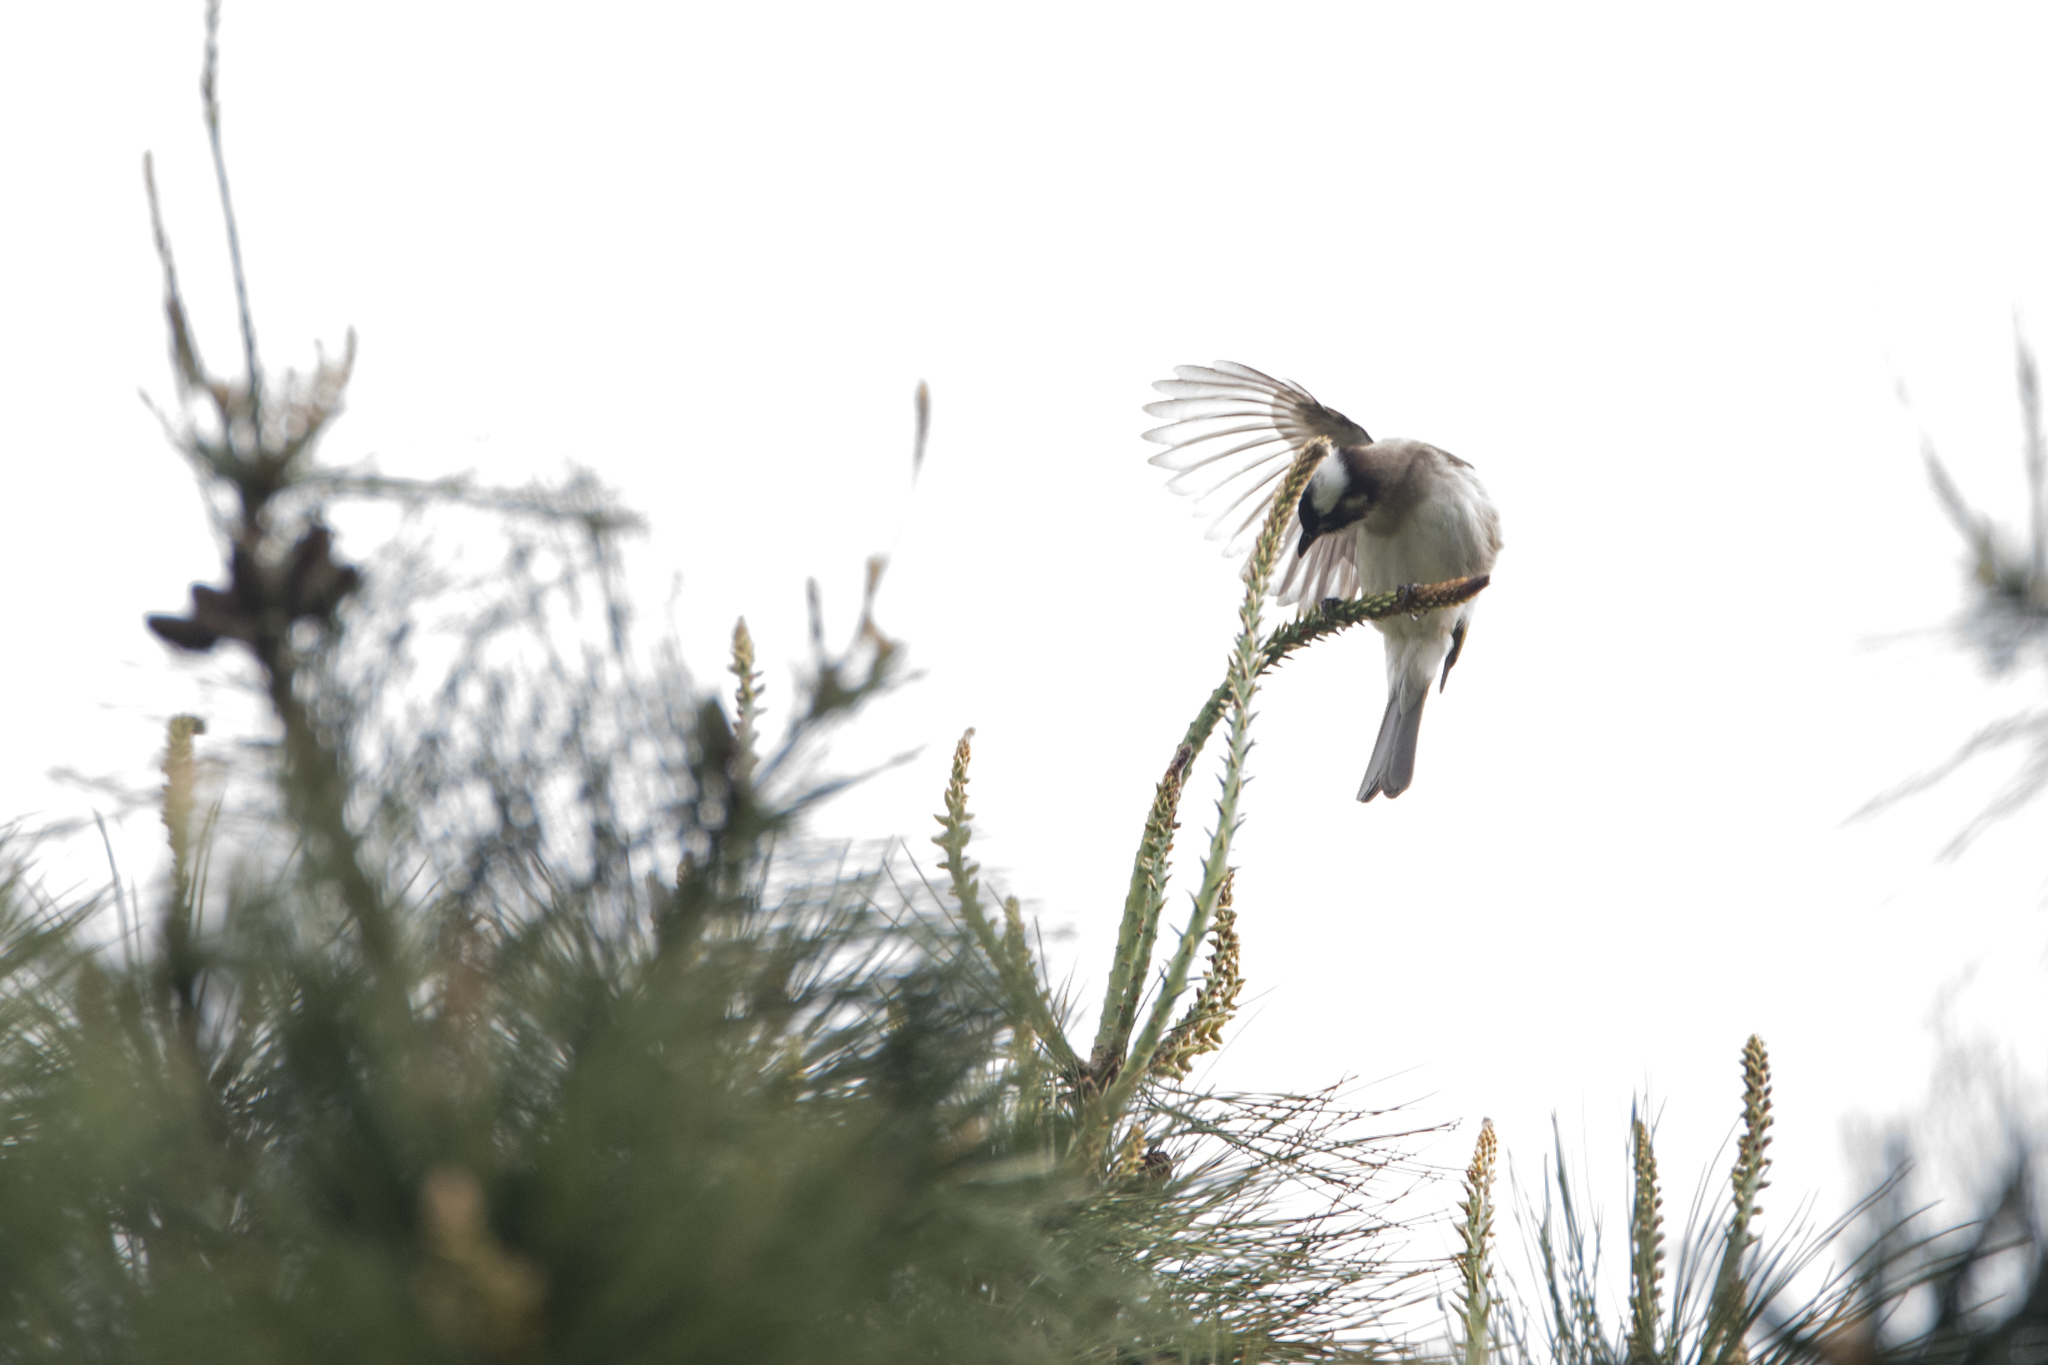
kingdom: Animalia
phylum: Chordata
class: Aves
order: Passeriformes
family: Pycnonotidae
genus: Pycnonotus
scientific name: Pycnonotus sinensis
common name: Light-vented bulbul
